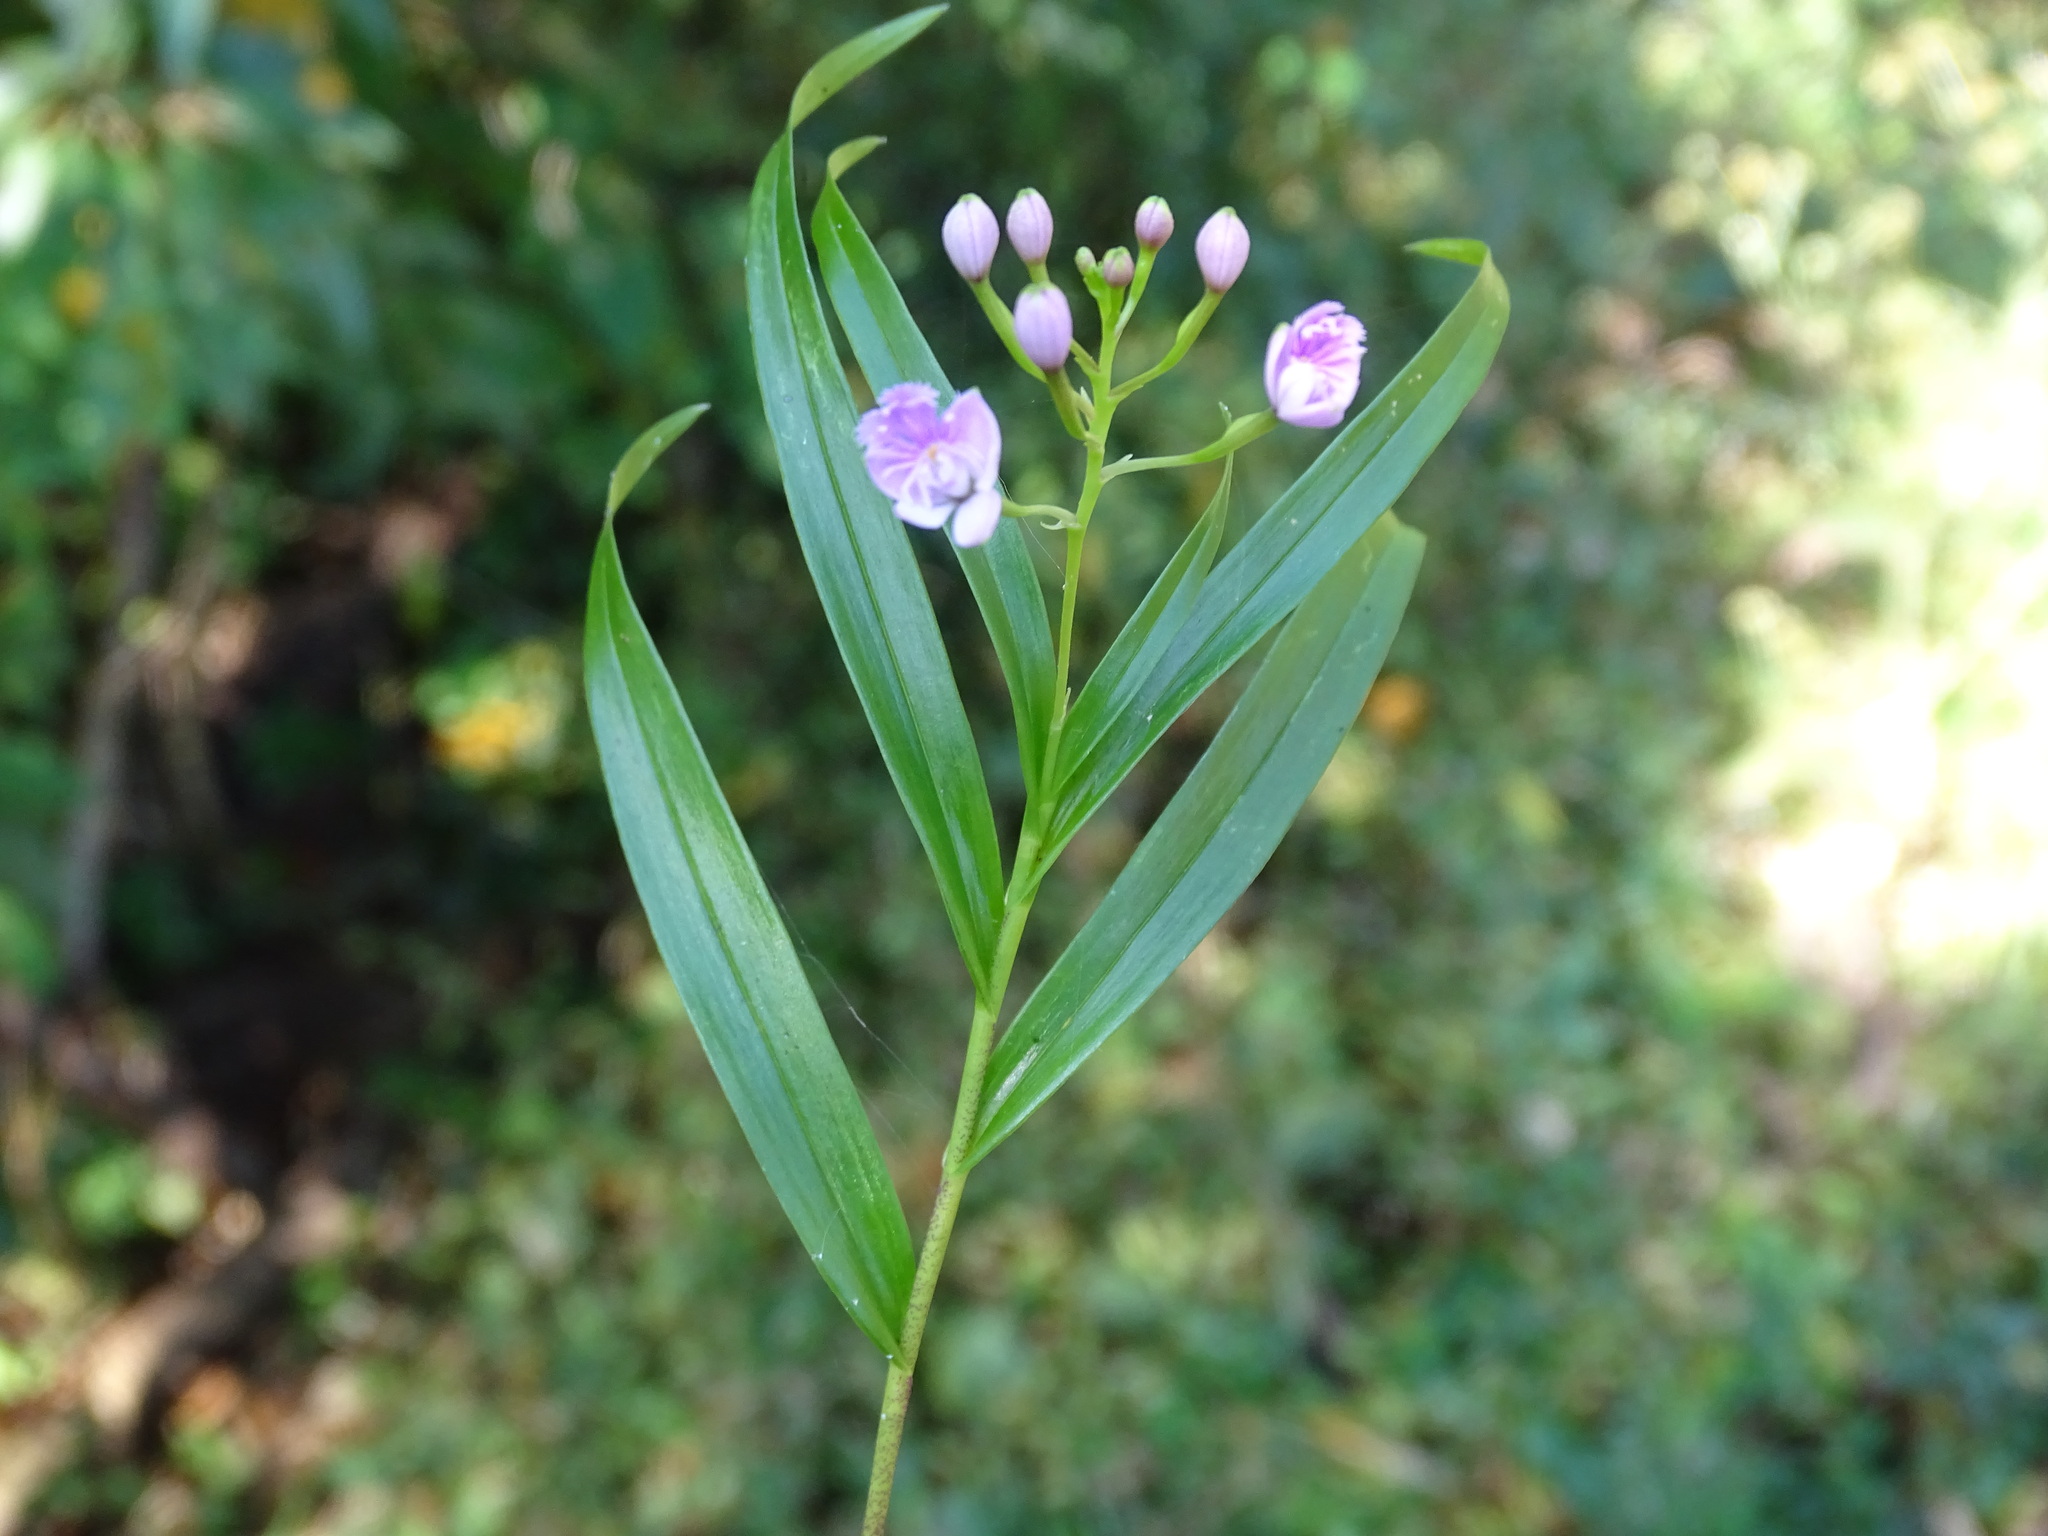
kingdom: Plantae
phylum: Tracheophyta
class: Liliopsida
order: Asparagales
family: Orchidaceae
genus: Epidendrum
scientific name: Epidendrum caligarium
